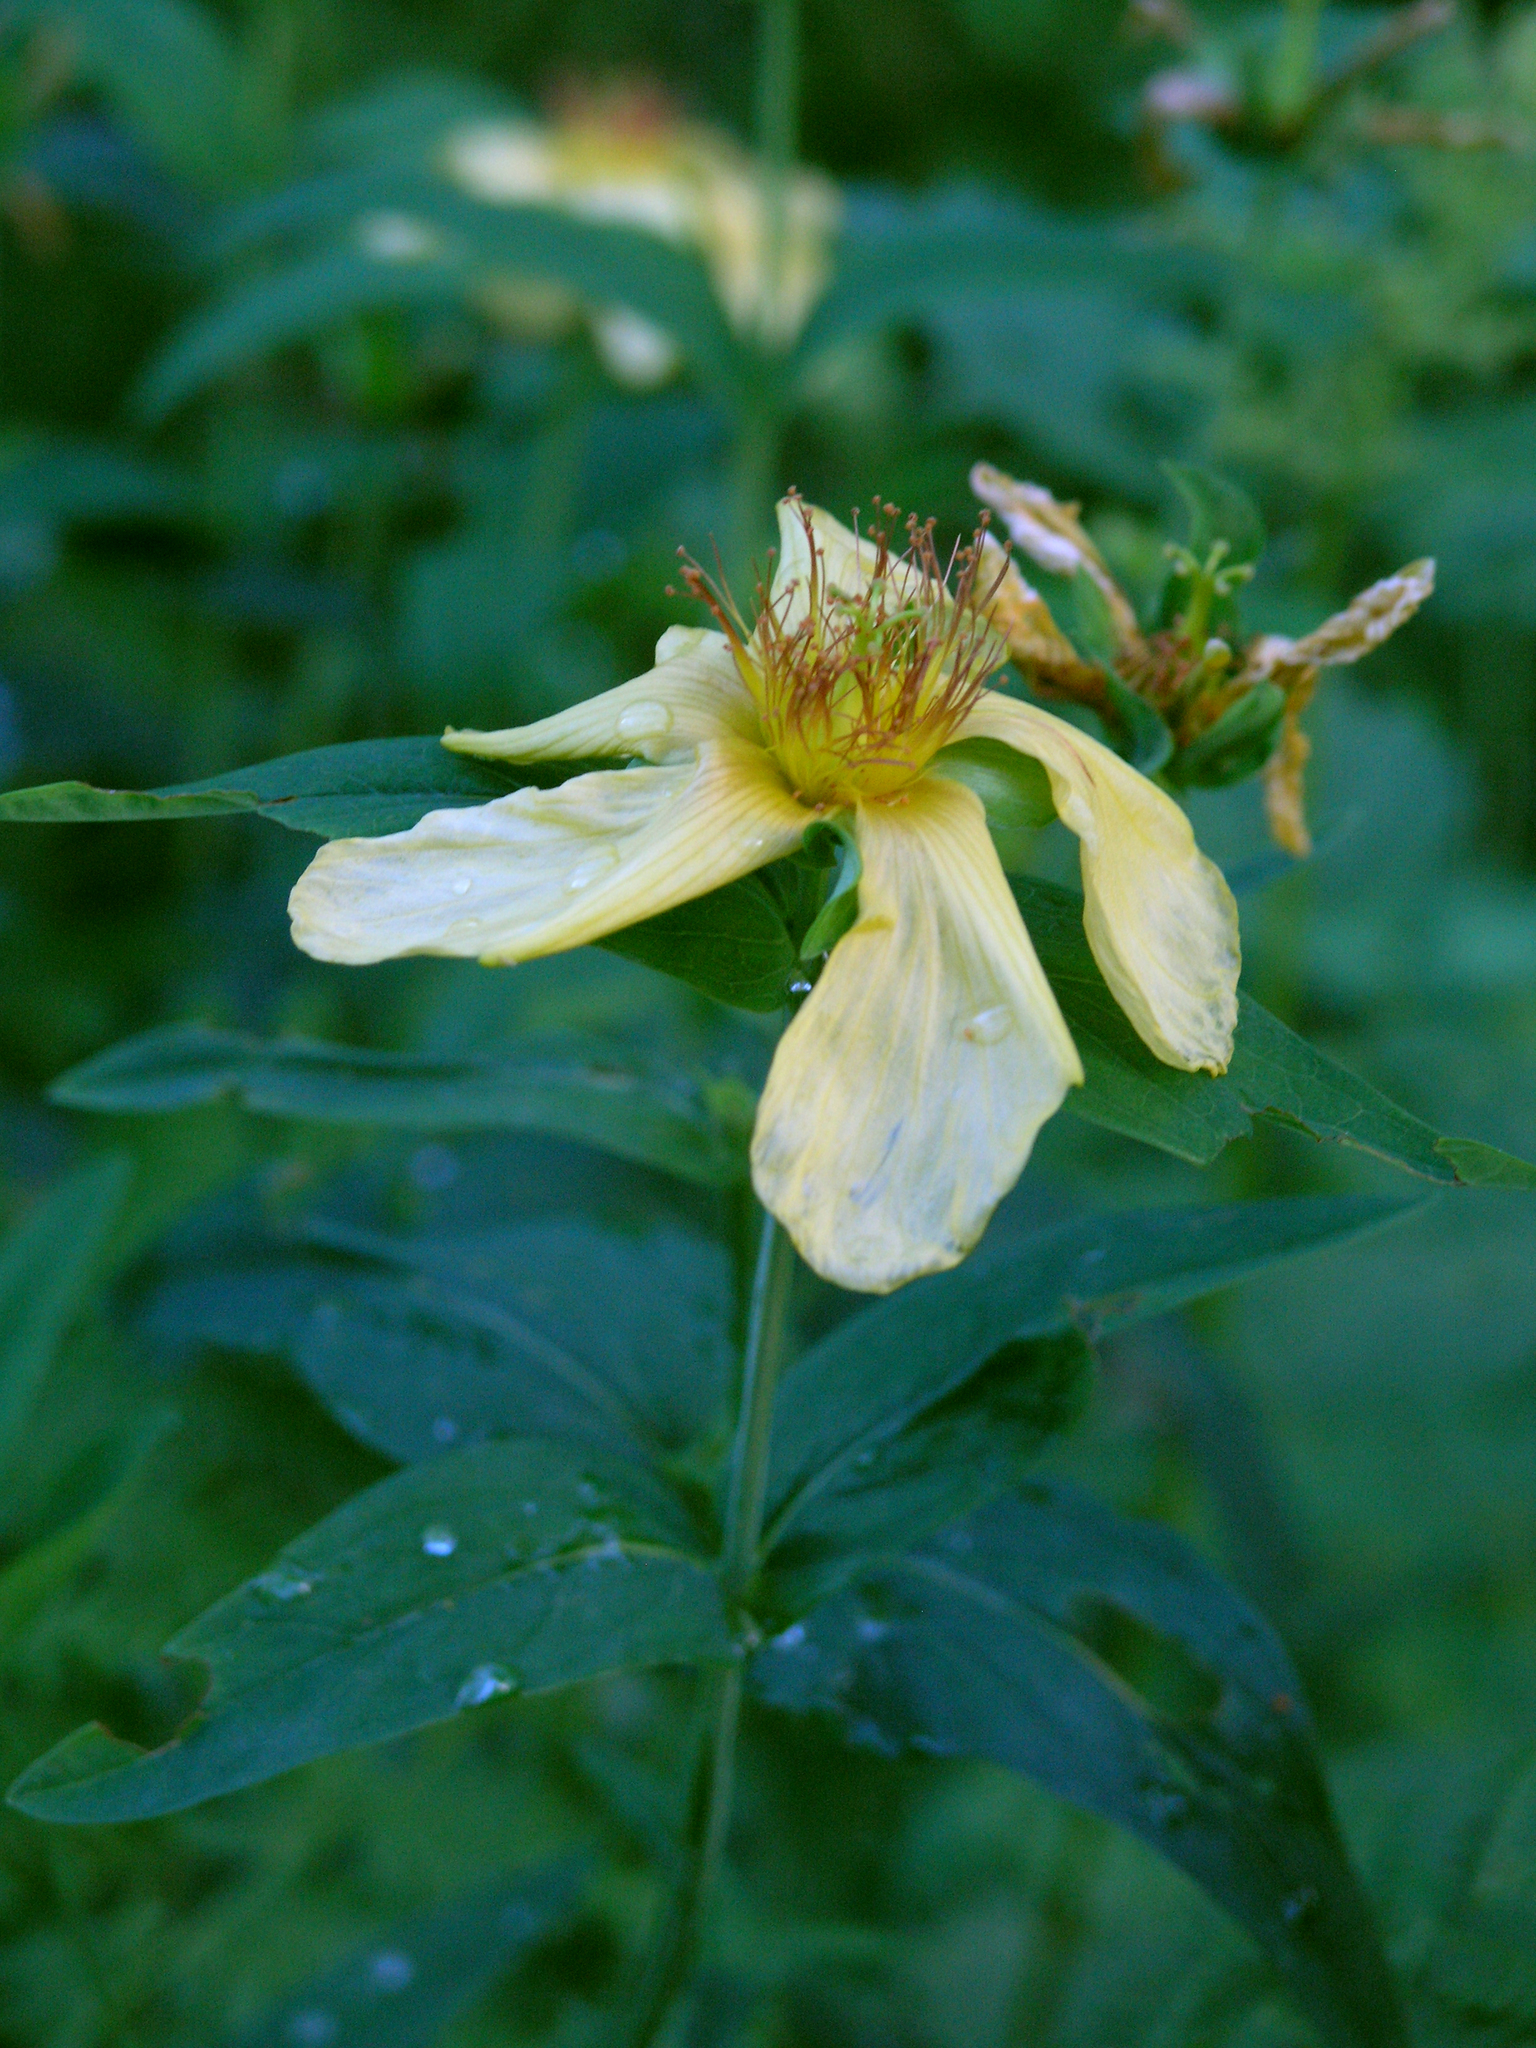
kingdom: Plantae
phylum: Tracheophyta
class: Magnoliopsida
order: Malpighiales
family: Hypericaceae
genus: Hypericum
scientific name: Hypericum ascyron
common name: Giant st. john's-wort
